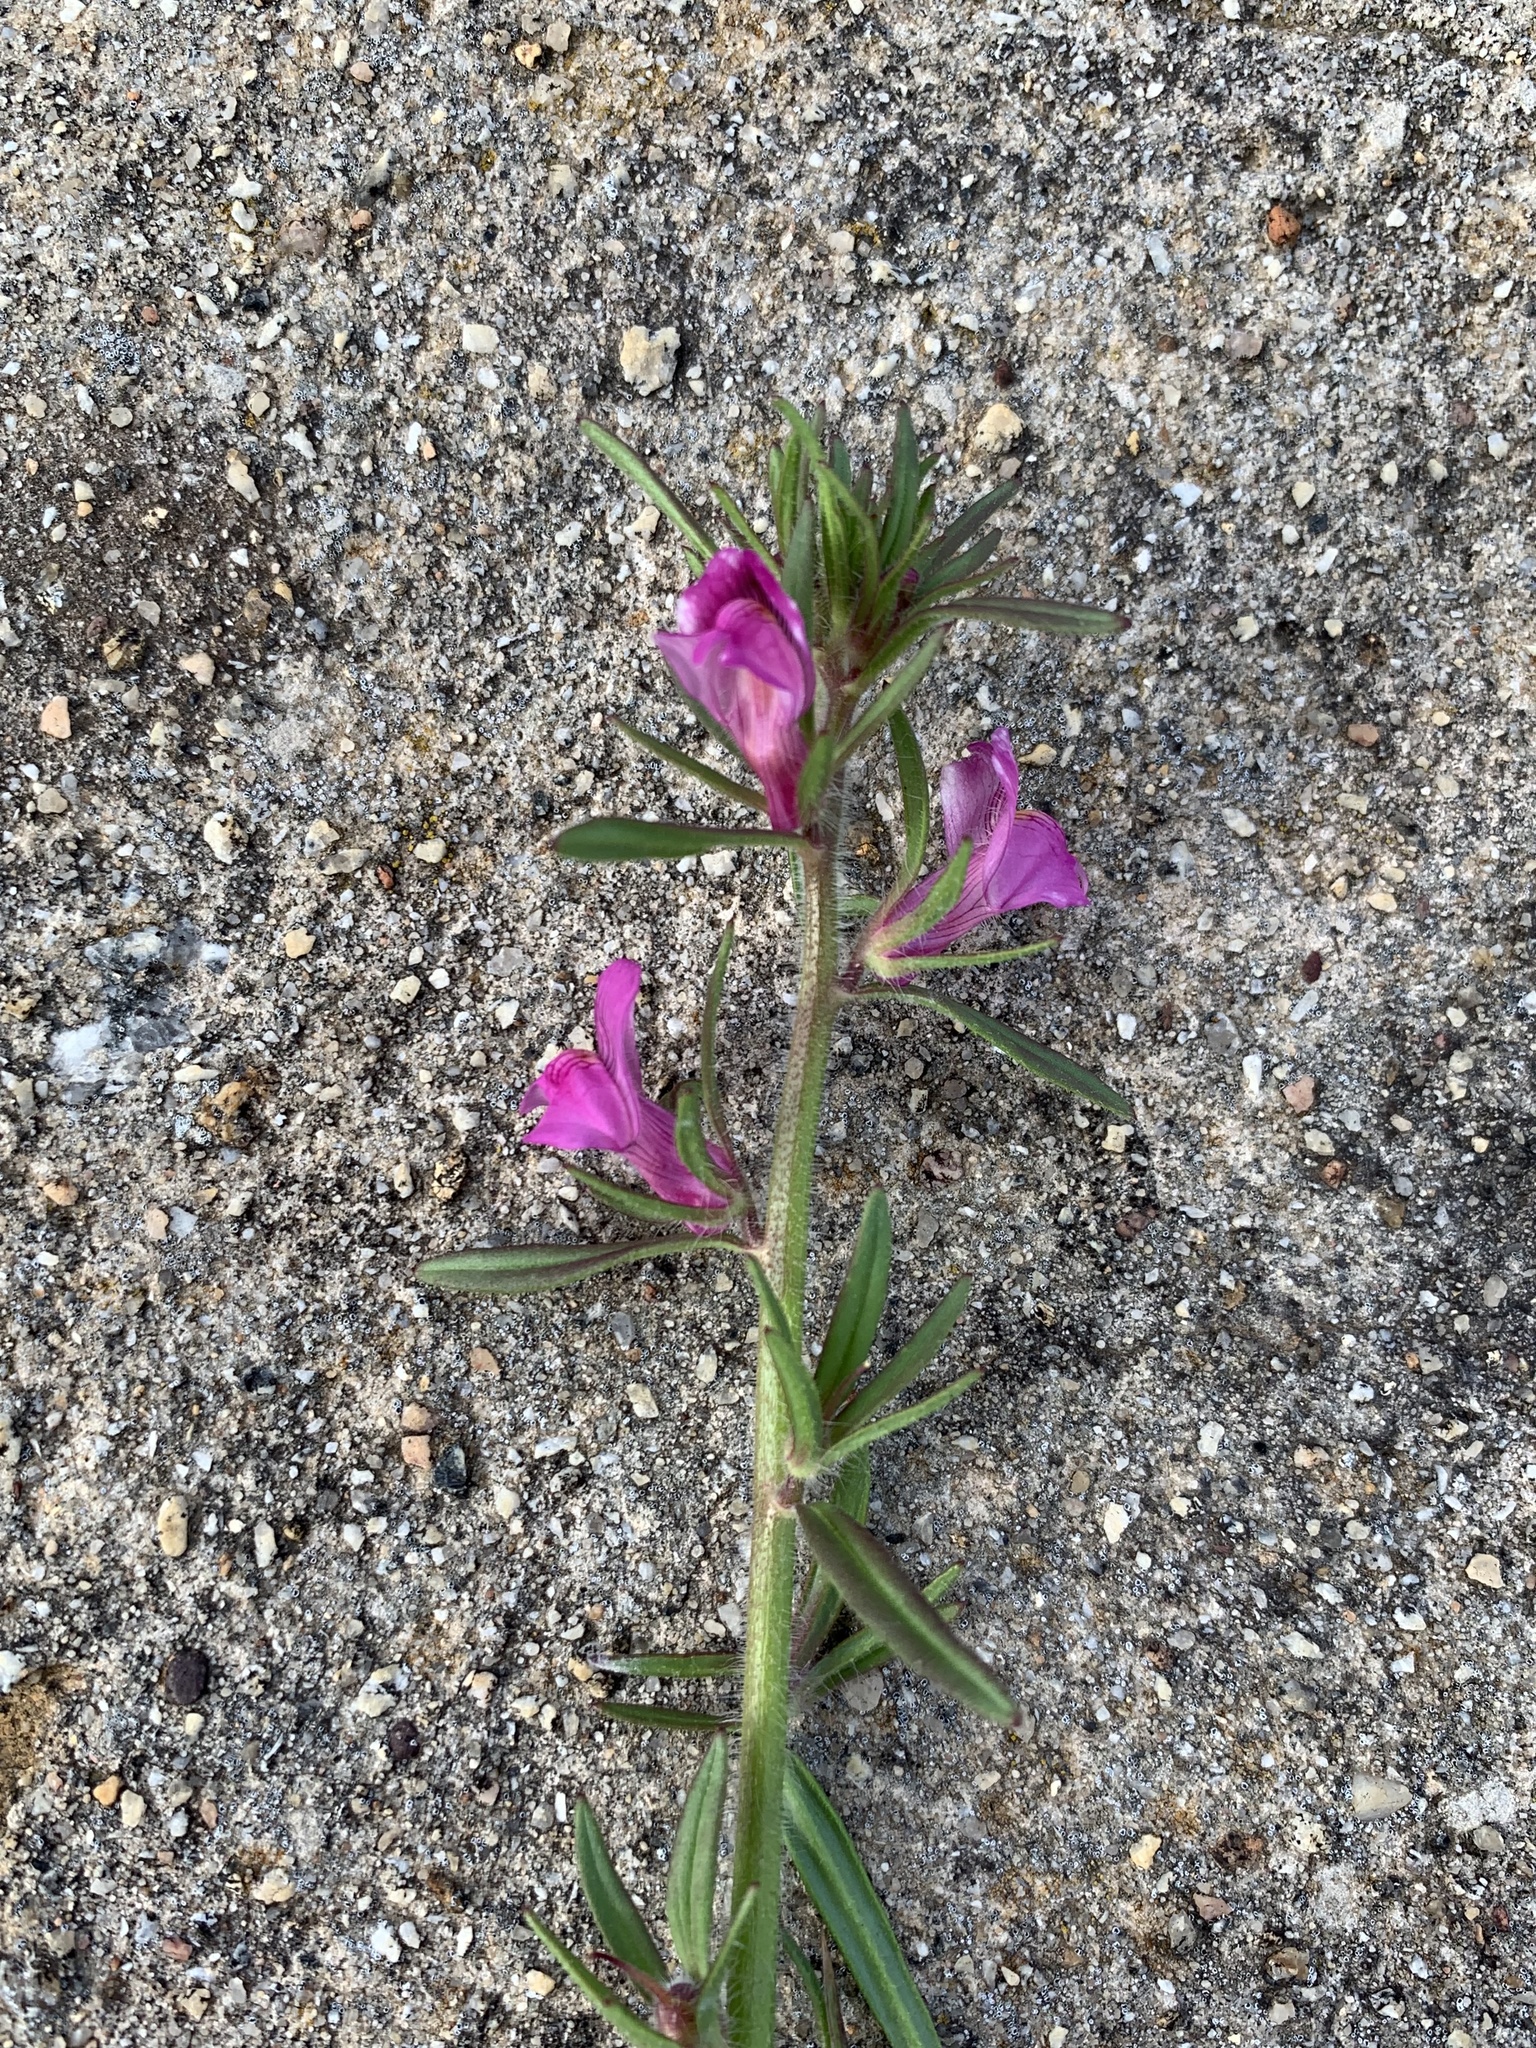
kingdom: Plantae
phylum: Tracheophyta
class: Magnoliopsida
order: Lamiales
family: Plantaginaceae
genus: Misopates
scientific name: Misopates orontium
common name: Weasel's-snout
